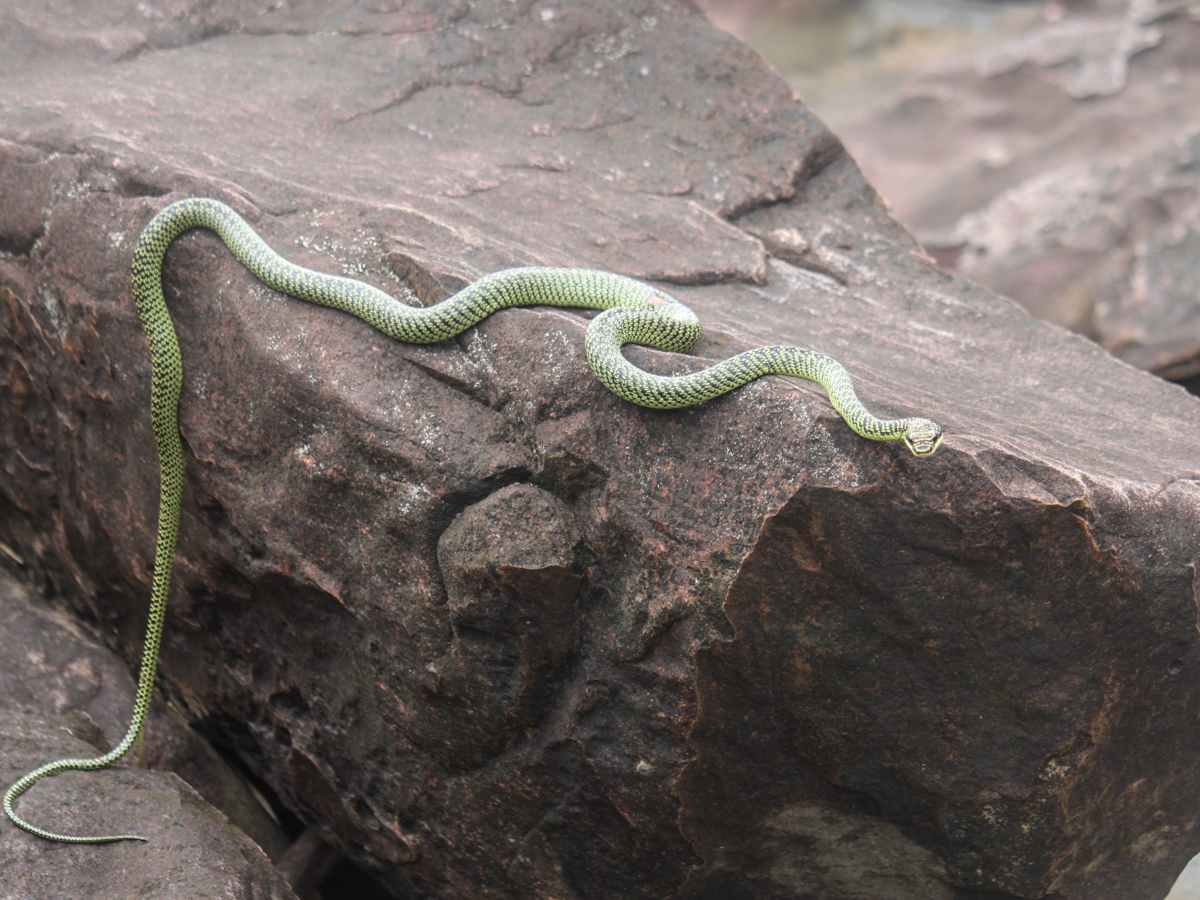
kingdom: Animalia
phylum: Chordata
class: Squamata
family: Colubridae
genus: Chrysopelea
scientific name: Chrysopelea ornata
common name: Golden flying snake
